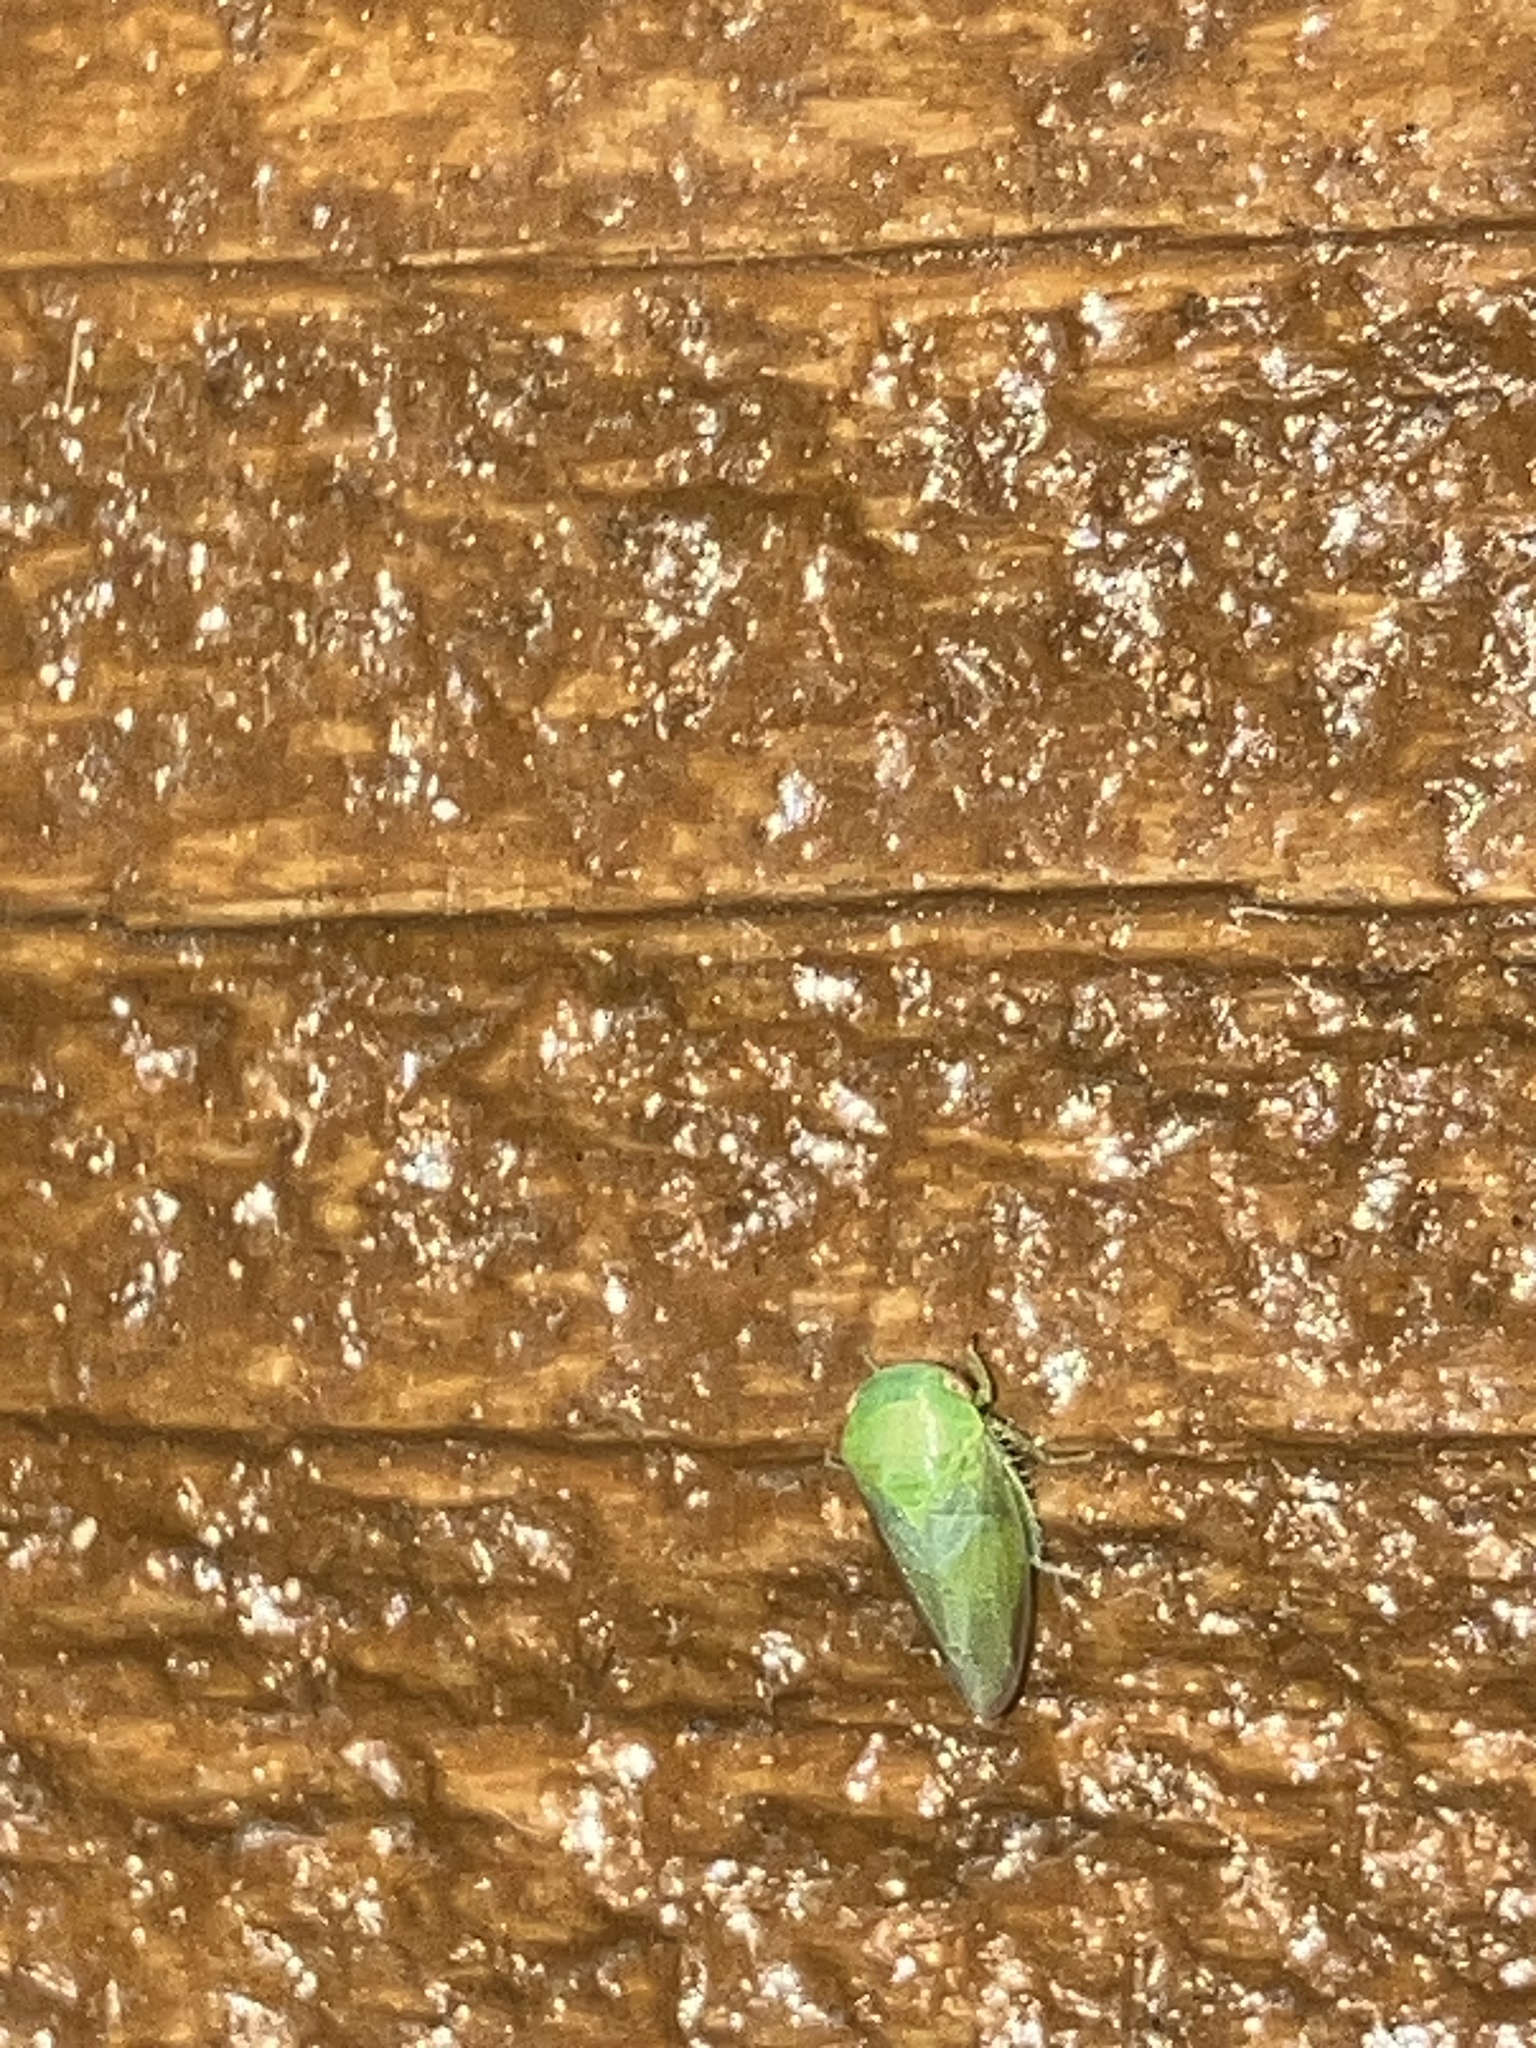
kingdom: Animalia
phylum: Arthropoda
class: Insecta
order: Hemiptera
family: Cicadellidae
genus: Penestragania
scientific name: Penestragania robusta
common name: Robust leafhopper
